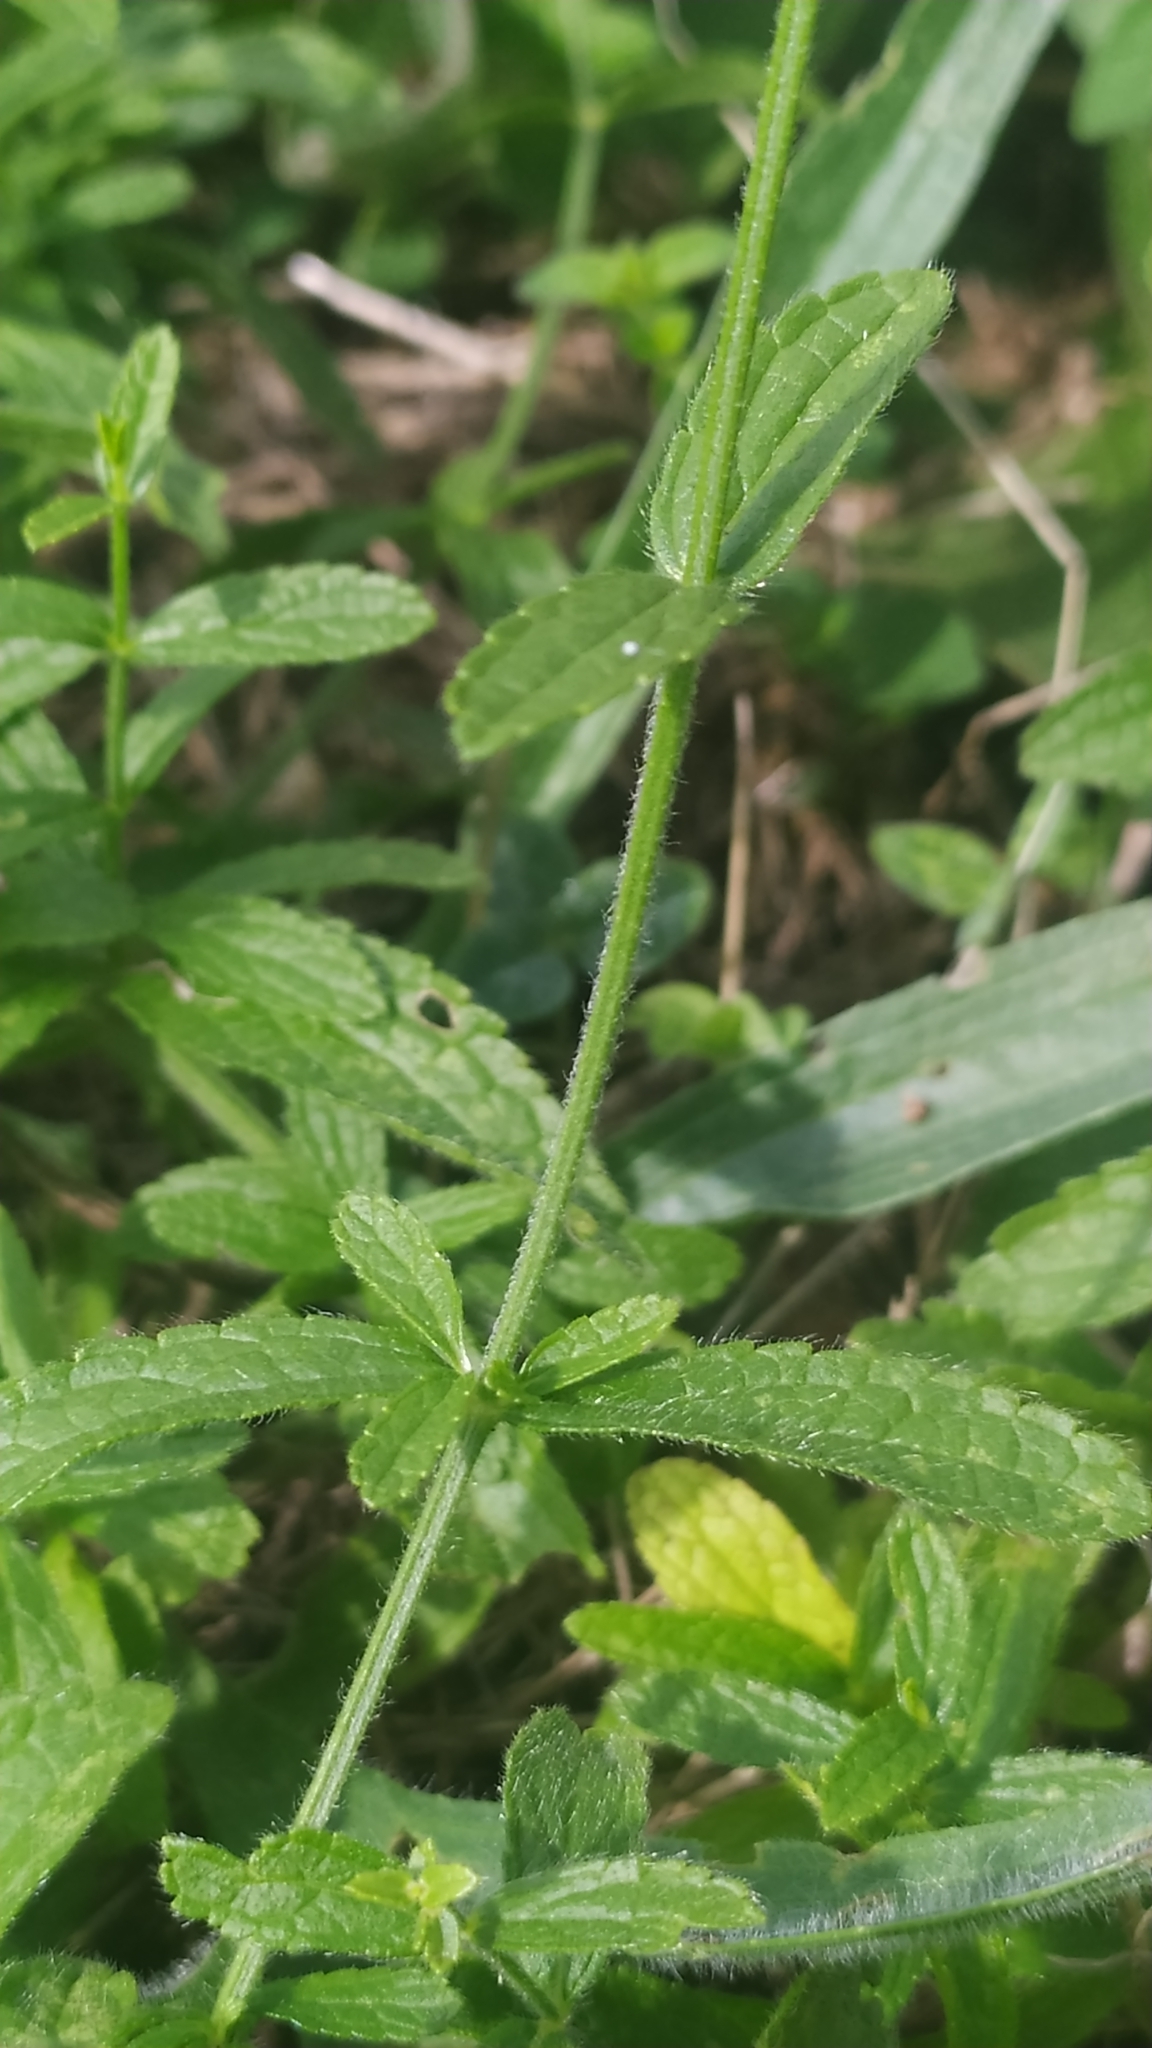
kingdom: Plantae
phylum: Tracheophyta
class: Magnoliopsida
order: Lamiales
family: Lamiaceae
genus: Stachys
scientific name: Stachys recta
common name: Perennial yellow-woundwort
